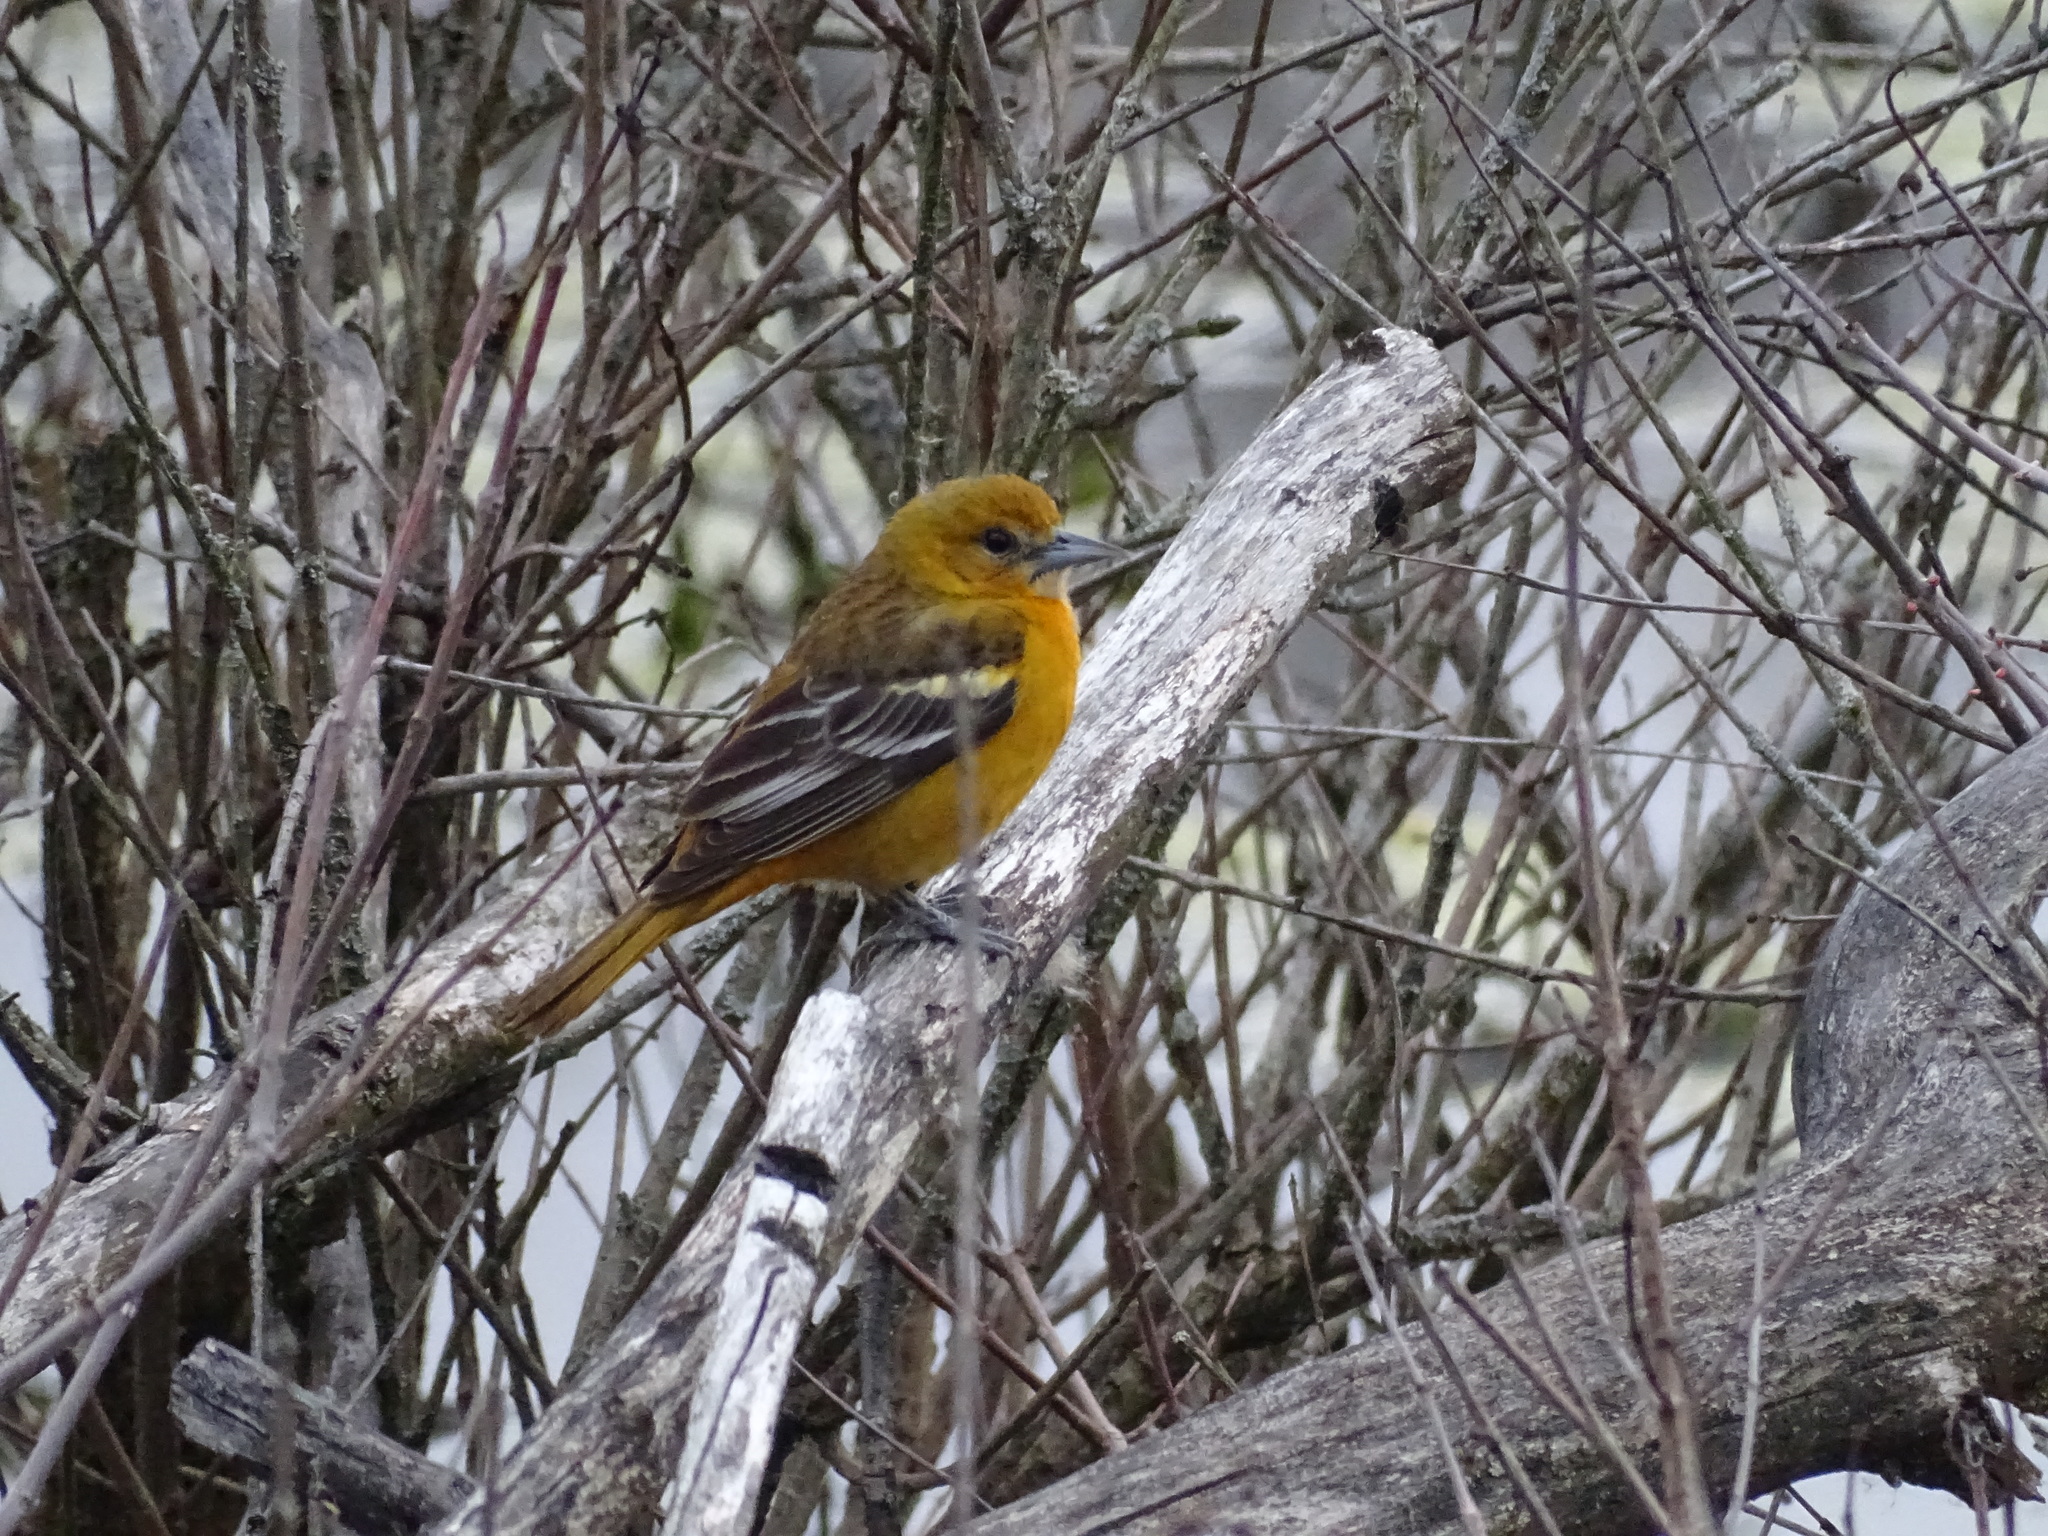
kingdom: Animalia
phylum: Chordata
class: Aves
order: Passeriformes
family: Icteridae
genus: Icterus
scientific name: Icterus galbula
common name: Baltimore oriole
